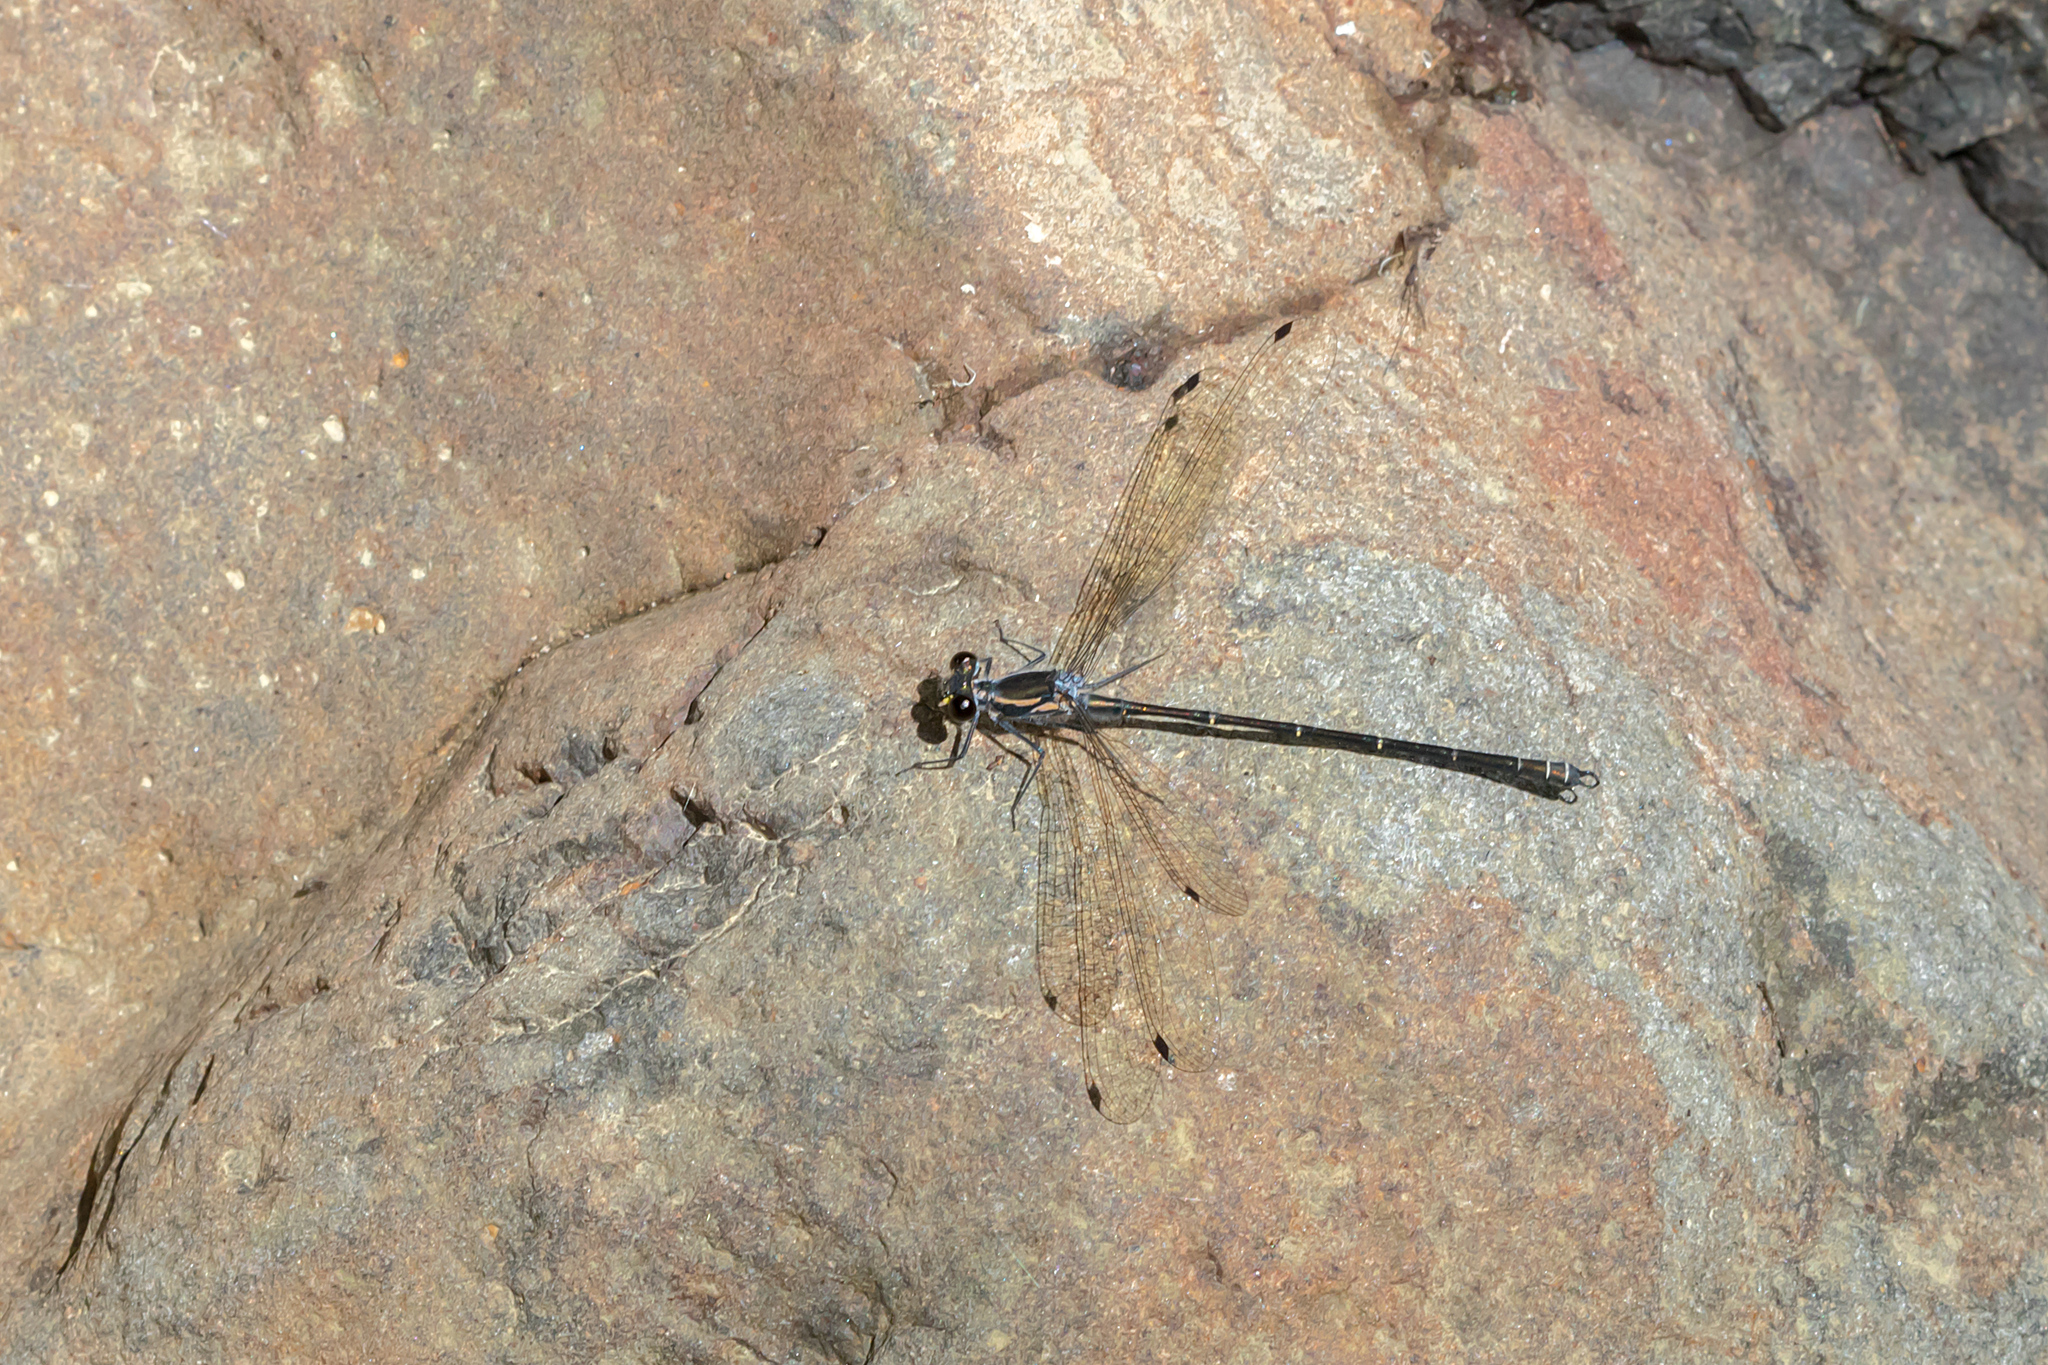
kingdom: Animalia
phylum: Arthropoda
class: Insecta
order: Odonata
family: Argiolestidae
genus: Austroargiolestes
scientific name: Austroargiolestes icteromelas
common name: Common flatwing
